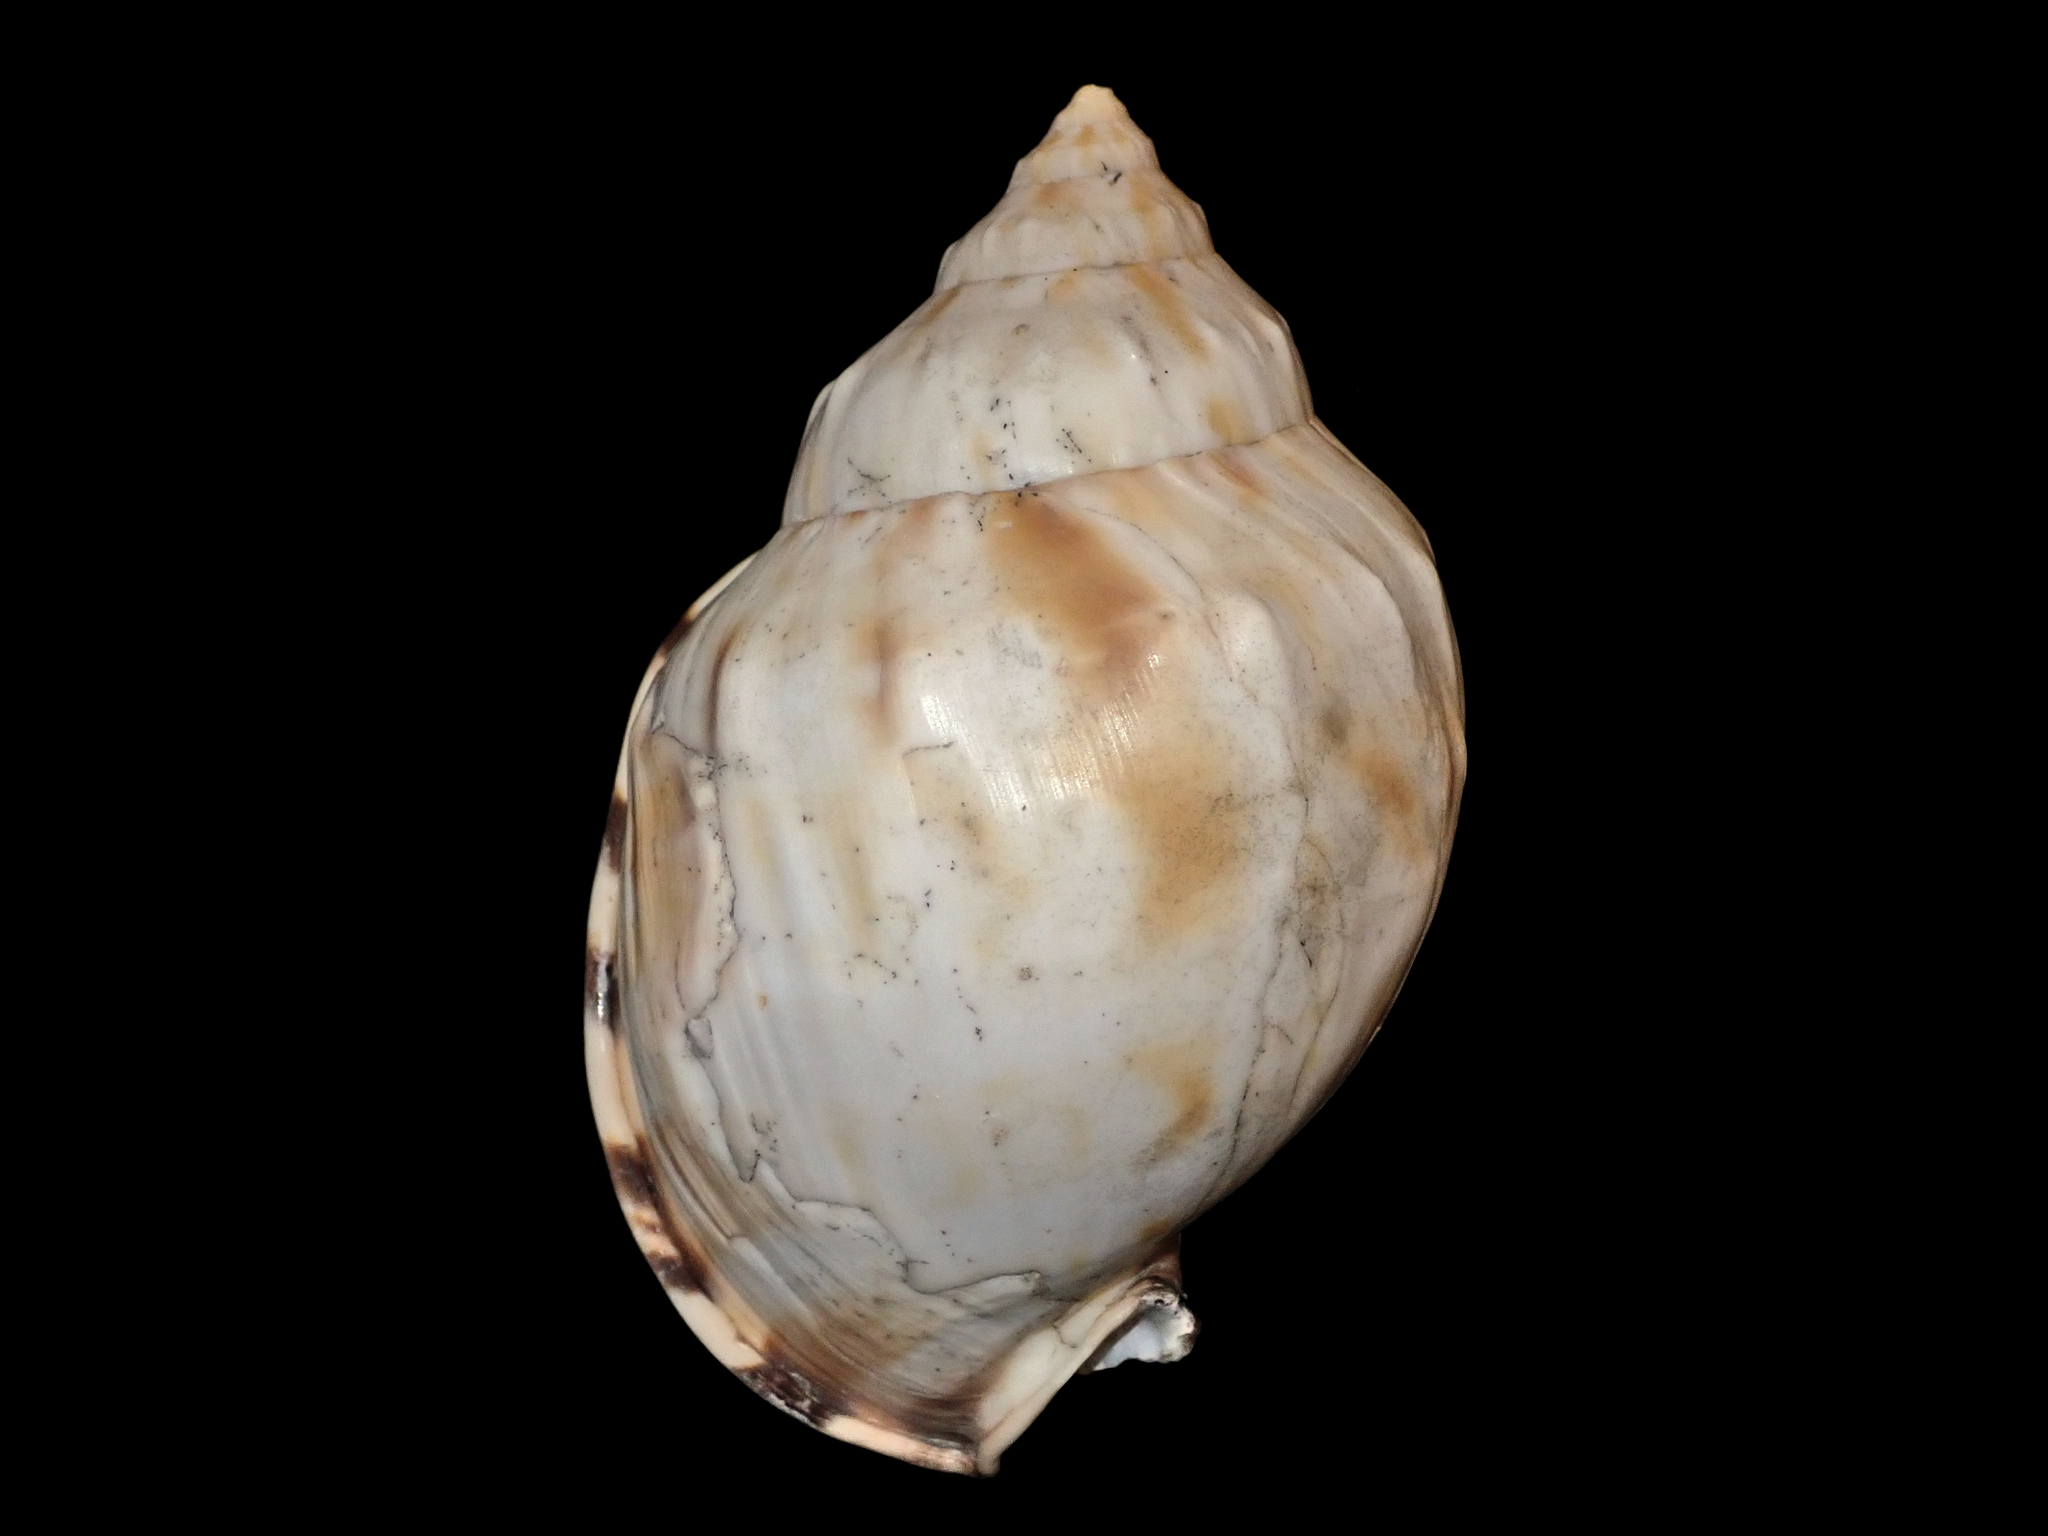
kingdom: Animalia
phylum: Mollusca
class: Gastropoda
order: Littorinimorpha
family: Cassidae
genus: Semicassis
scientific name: Semicassis royana
